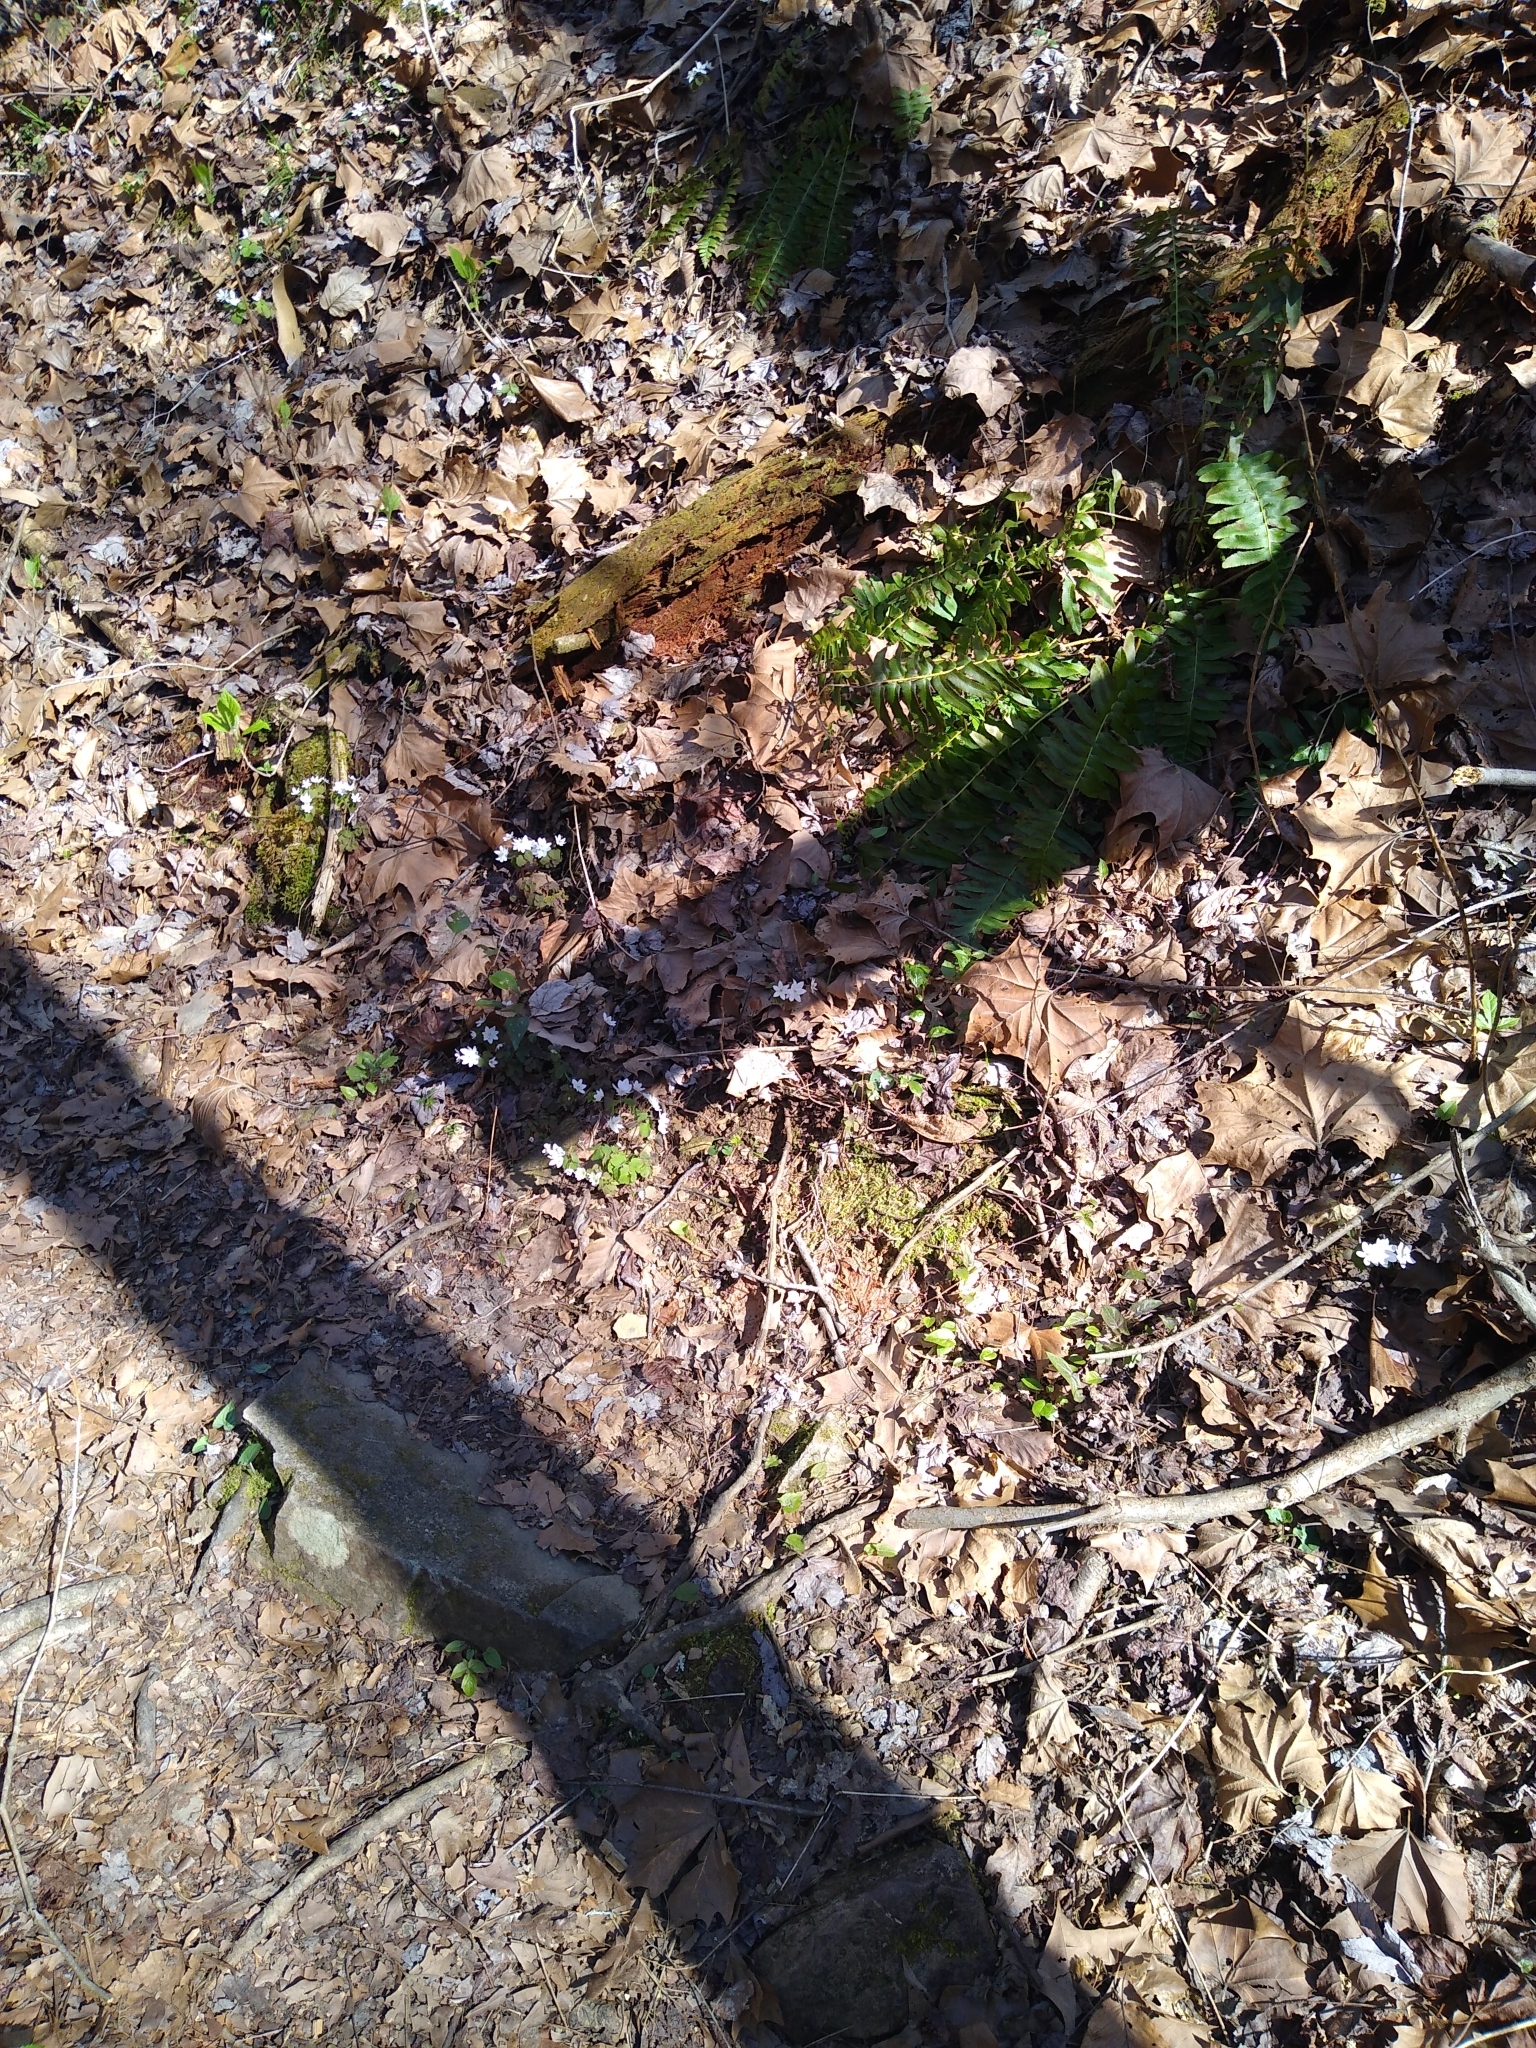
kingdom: Plantae
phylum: Tracheophyta
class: Magnoliopsida
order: Ranunculales
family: Ranunculaceae
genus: Thalictrum
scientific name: Thalictrum thalictroides
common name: Rue-anemone
